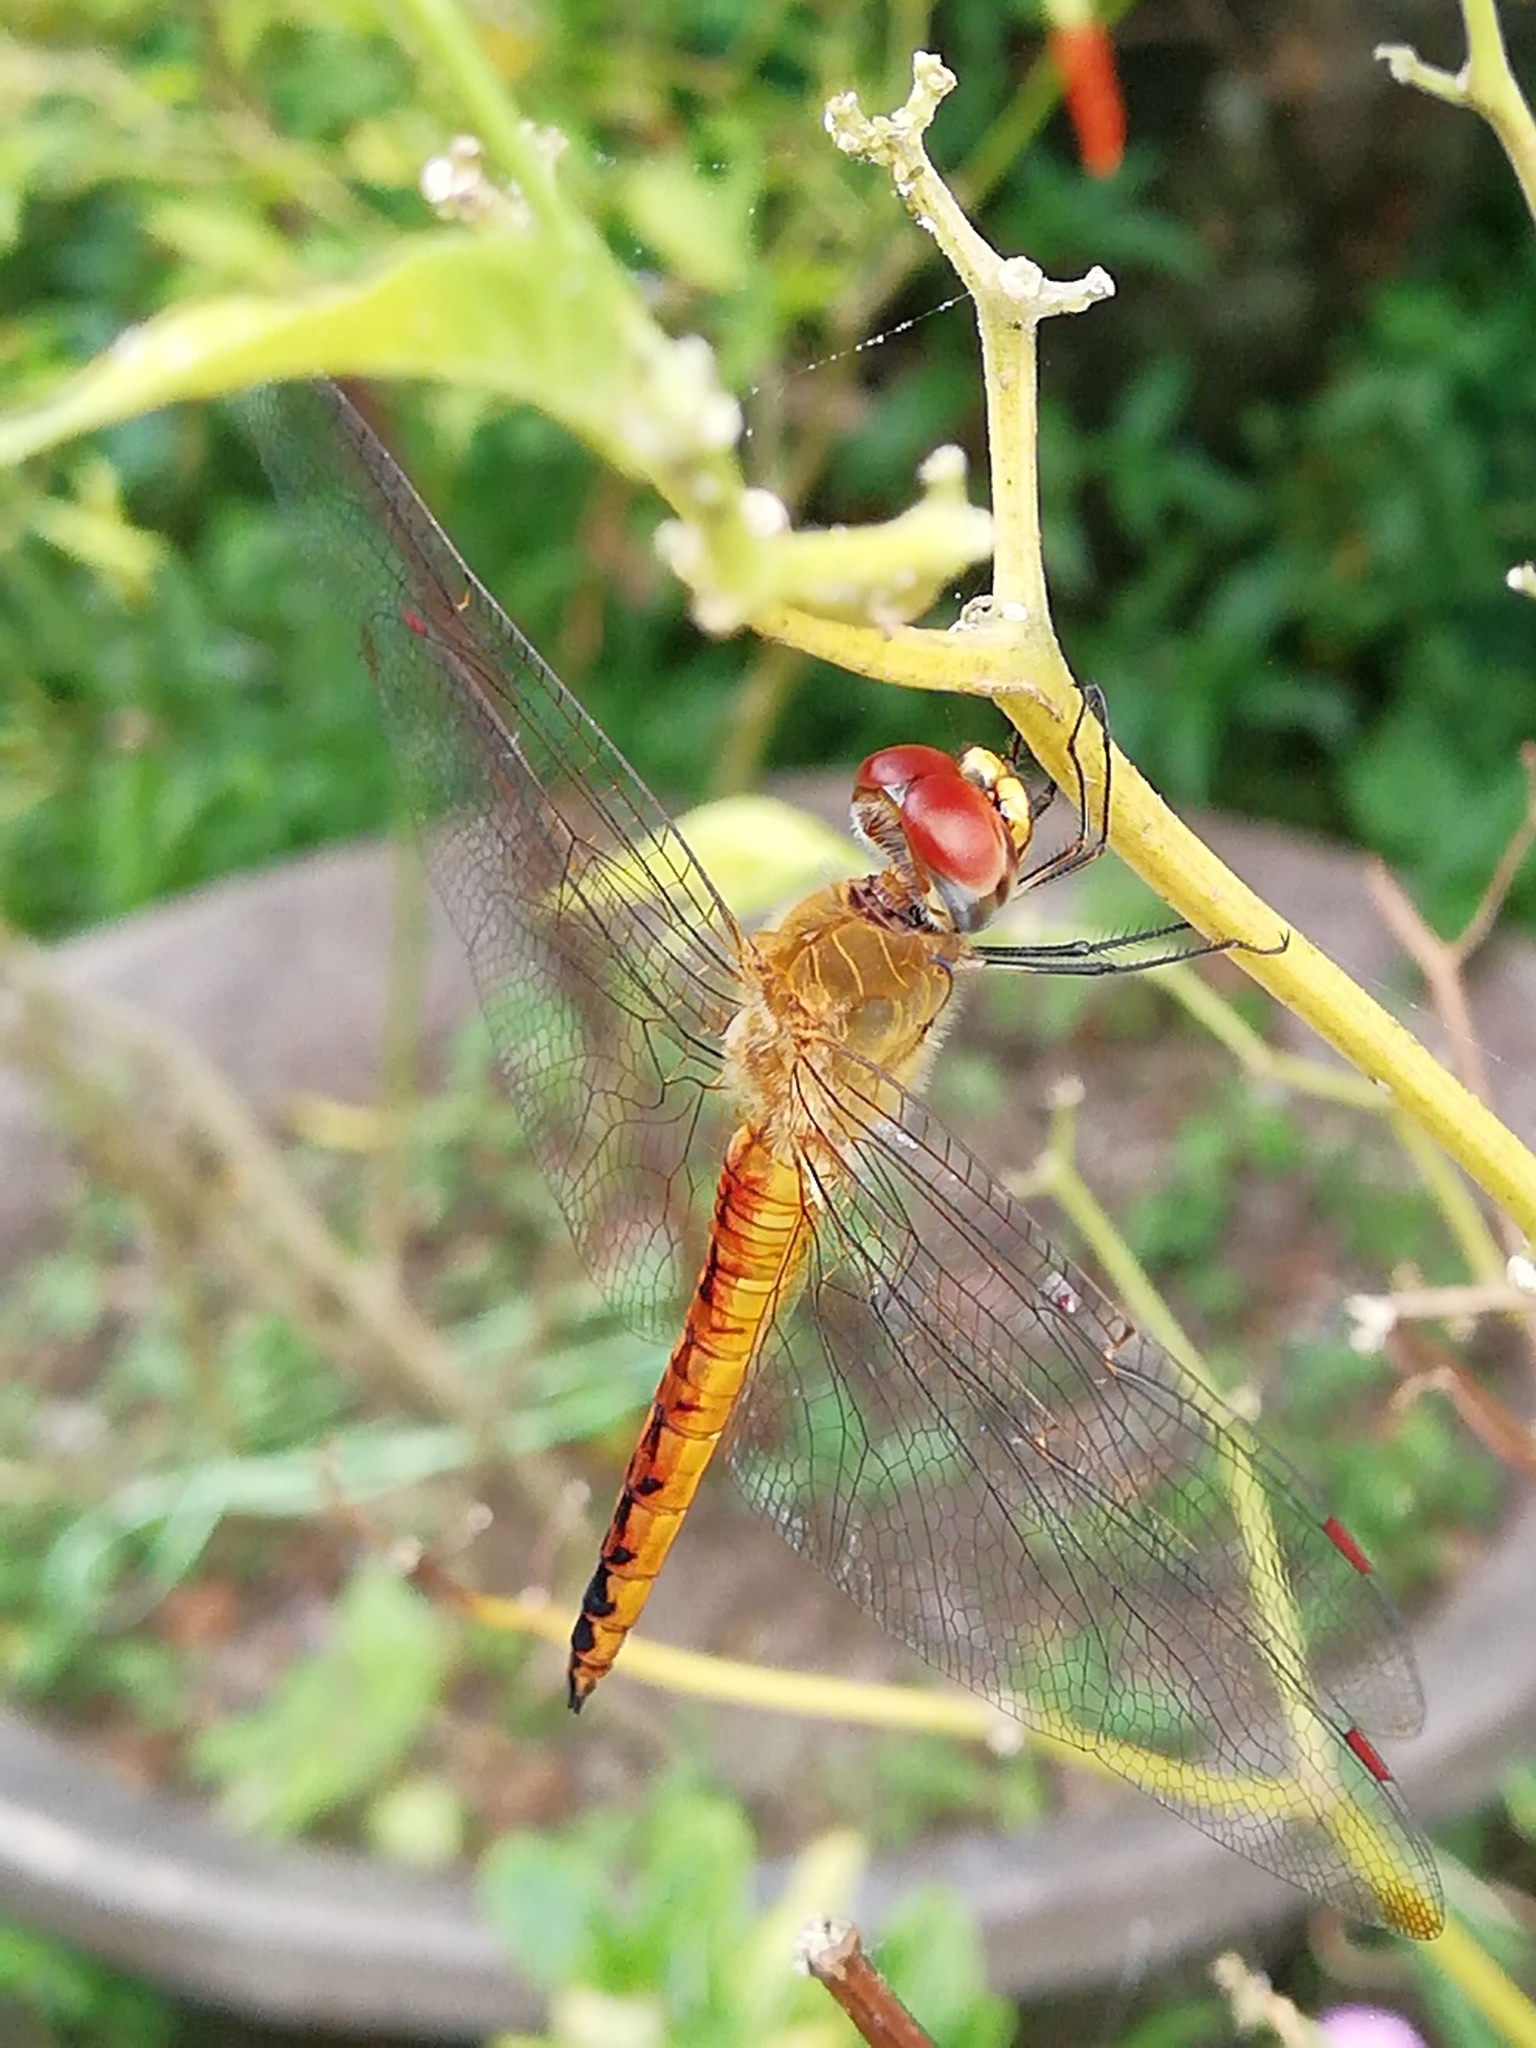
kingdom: Animalia
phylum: Arthropoda
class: Insecta
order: Odonata
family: Libellulidae
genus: Pantala
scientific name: Pantala flavescens
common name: Wandering glider
